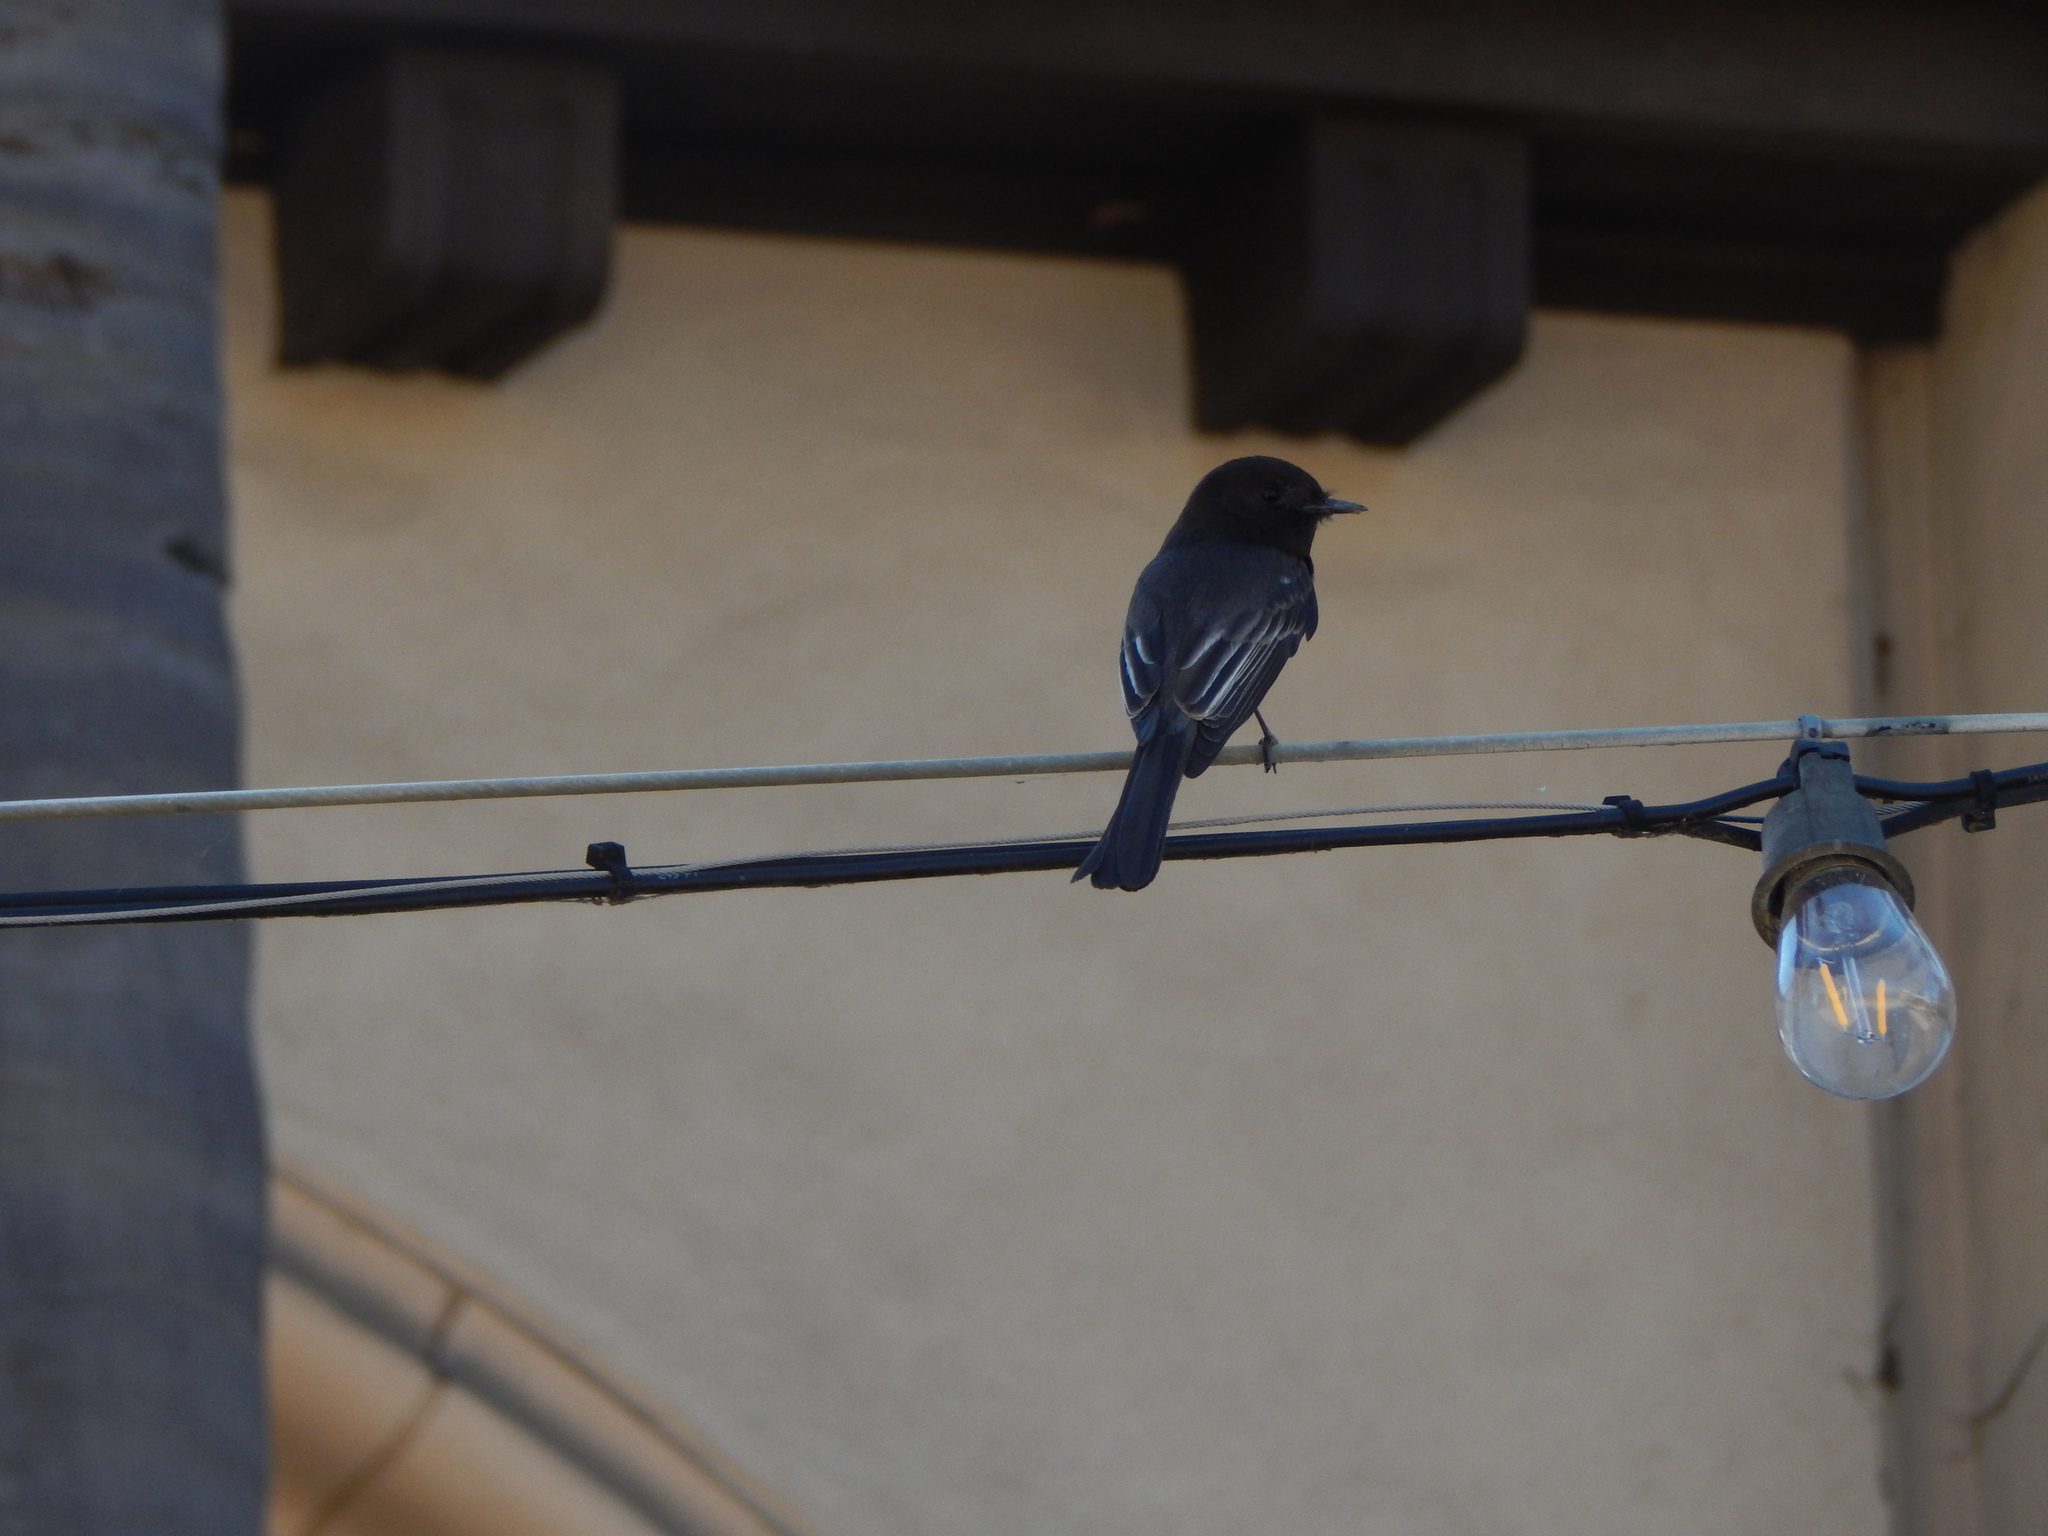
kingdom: Animalia
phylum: Chordata
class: Aves
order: Passeriformes
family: Tyrannidae
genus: Sayornis
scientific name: Sayornis nigricans
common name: Black phoebe
